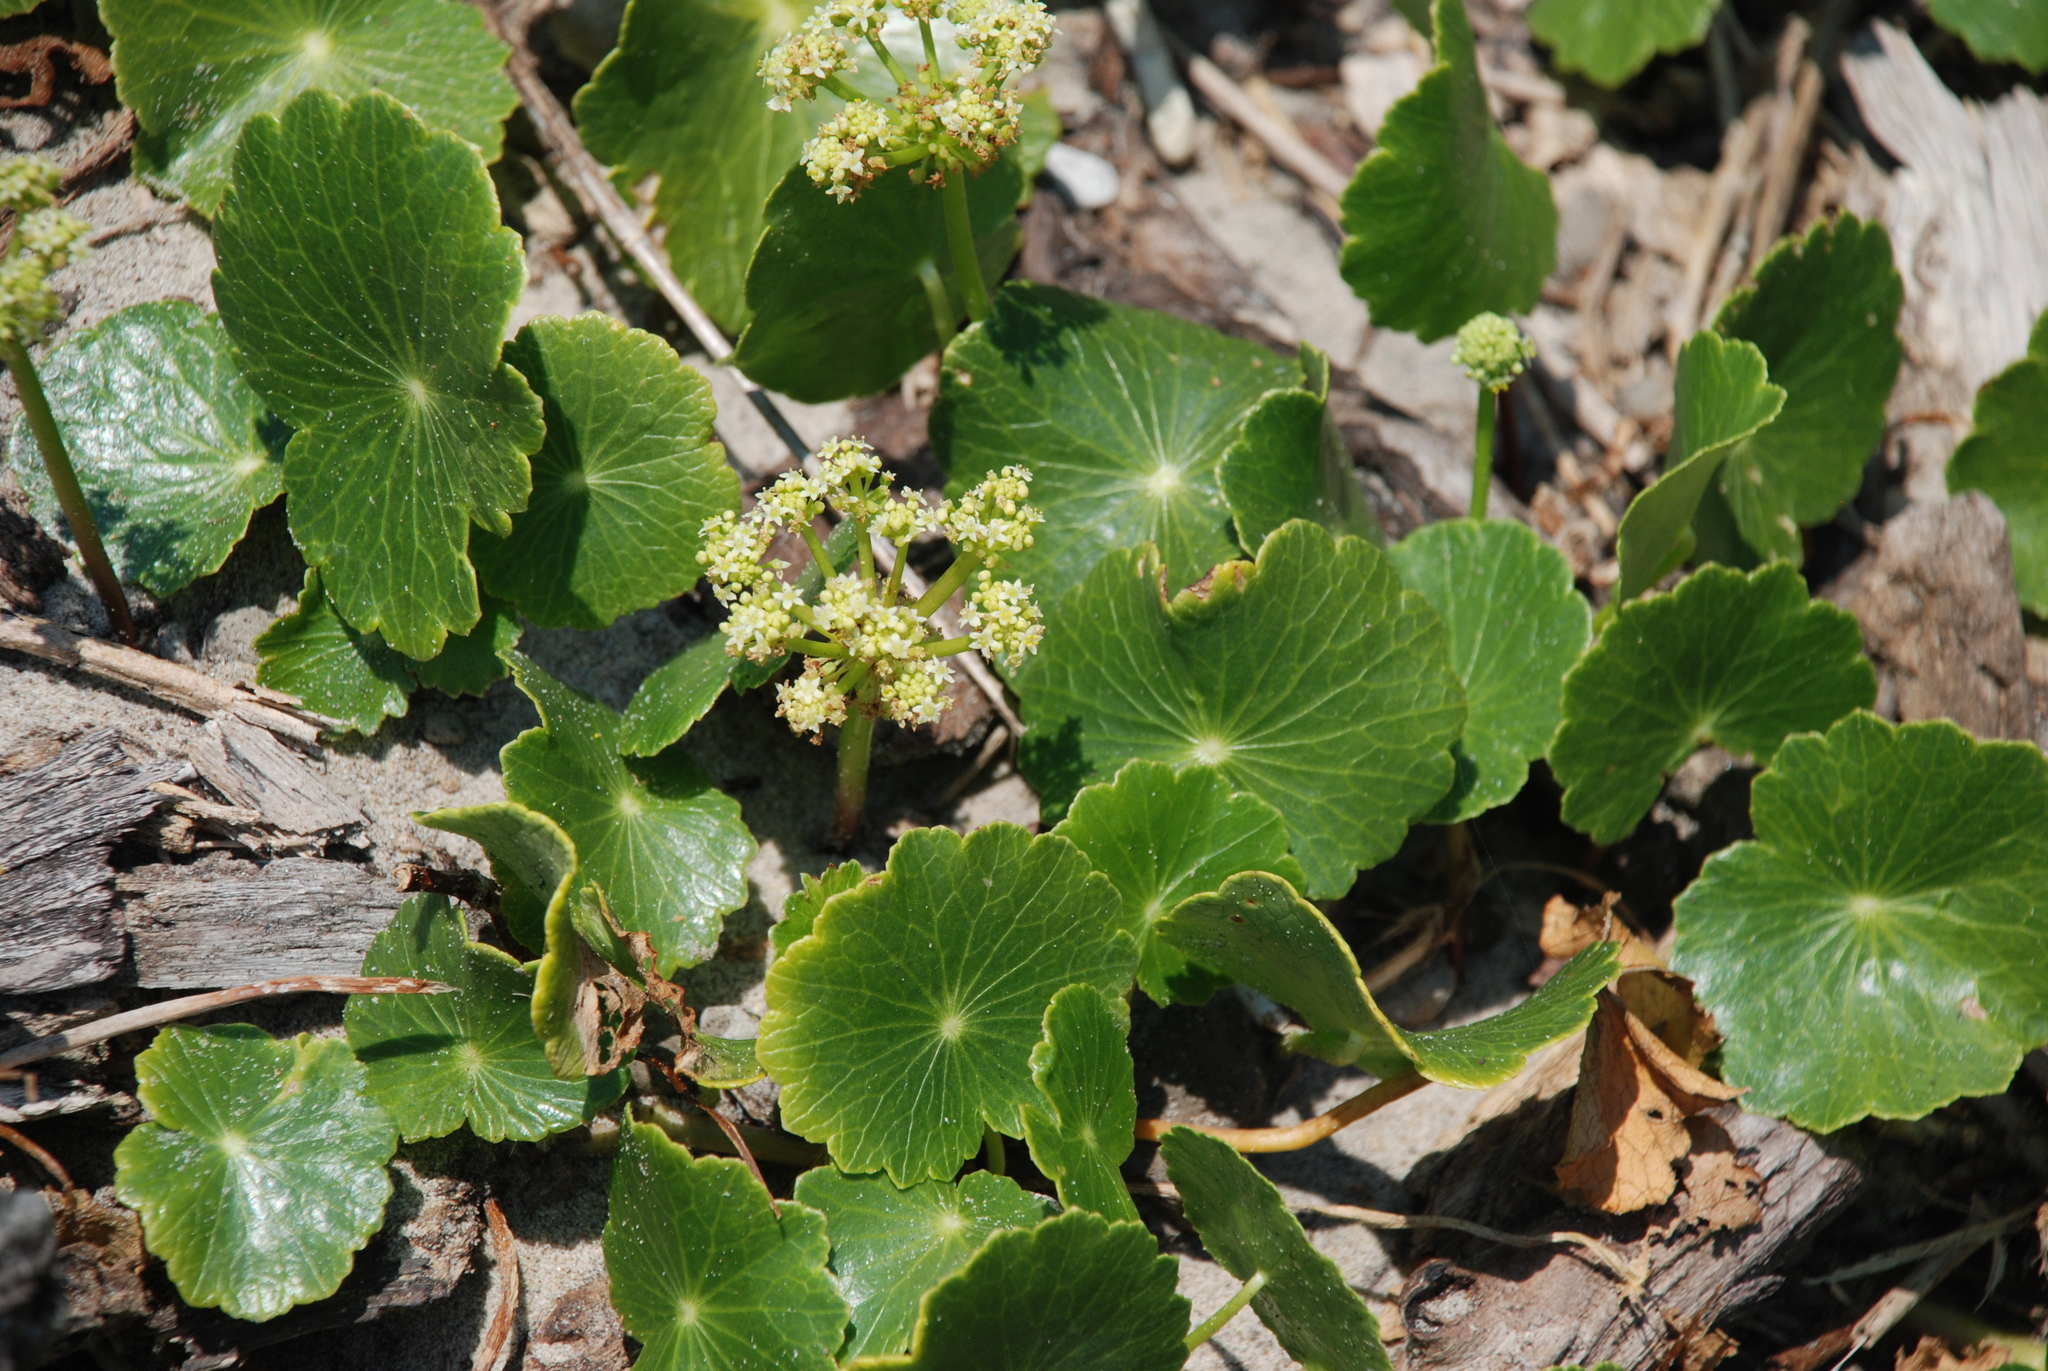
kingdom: Plantae
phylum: Tracheophyta
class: Magnoliopsida
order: Apiales
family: Araliaceae
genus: Hydrocotyle
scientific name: Hydrocotyle bonariensis
